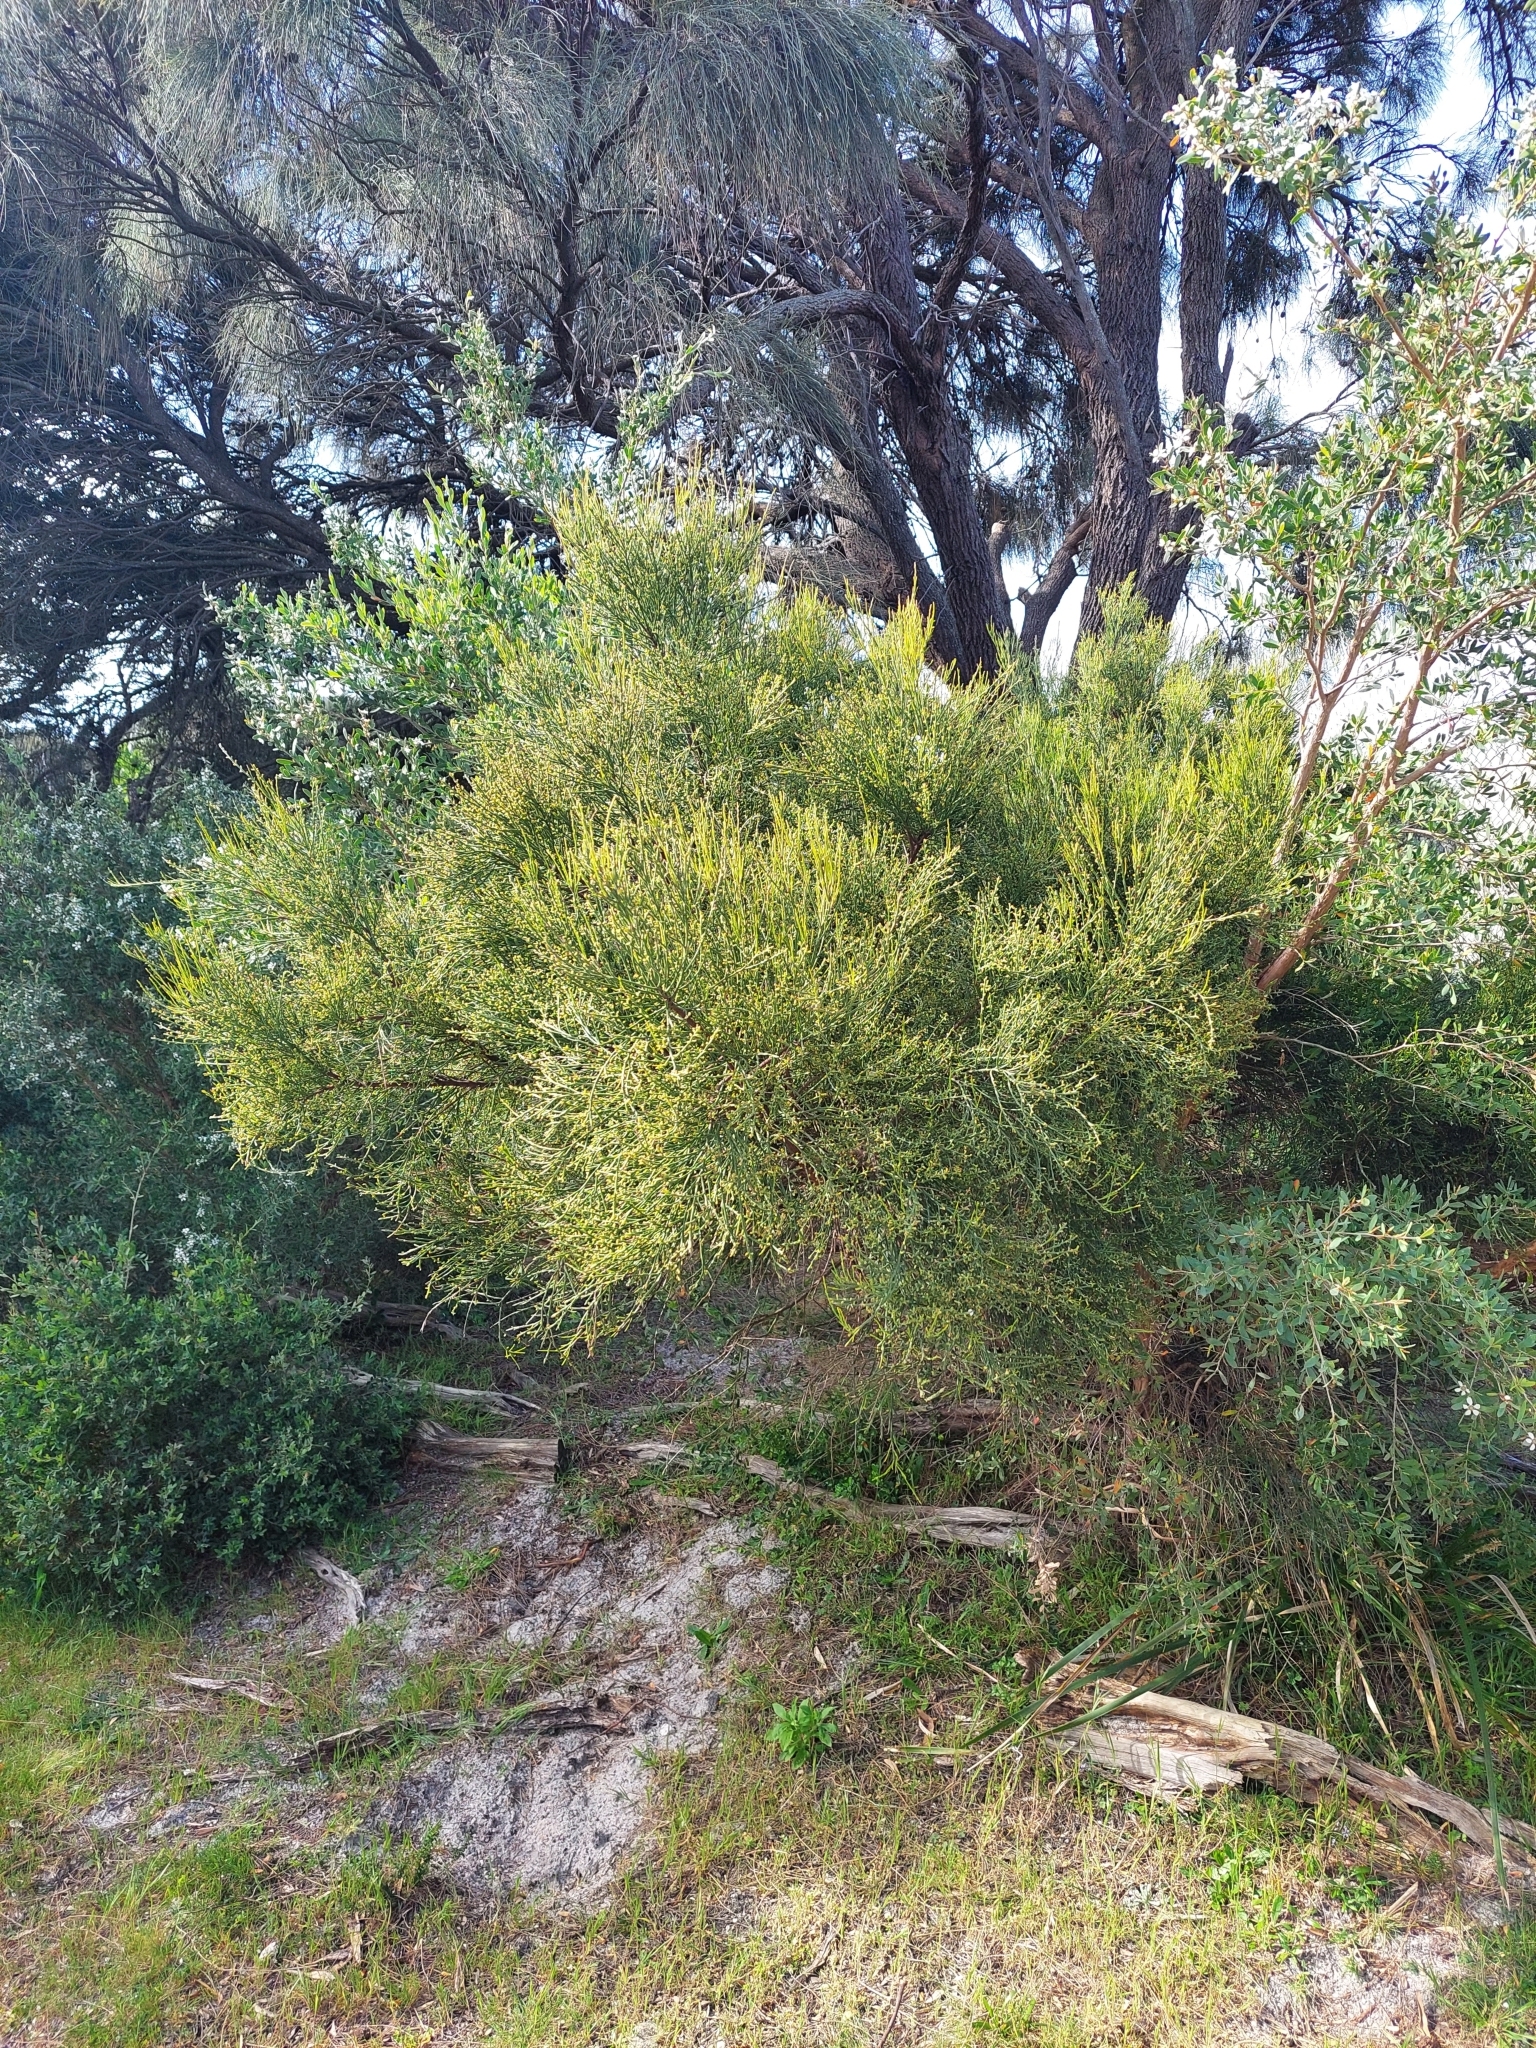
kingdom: Plantae
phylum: Tracheophyta
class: Magnoliopsida
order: Santalales
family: Santalaceae
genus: Exocarpos
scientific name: Exocarpos syrticola
